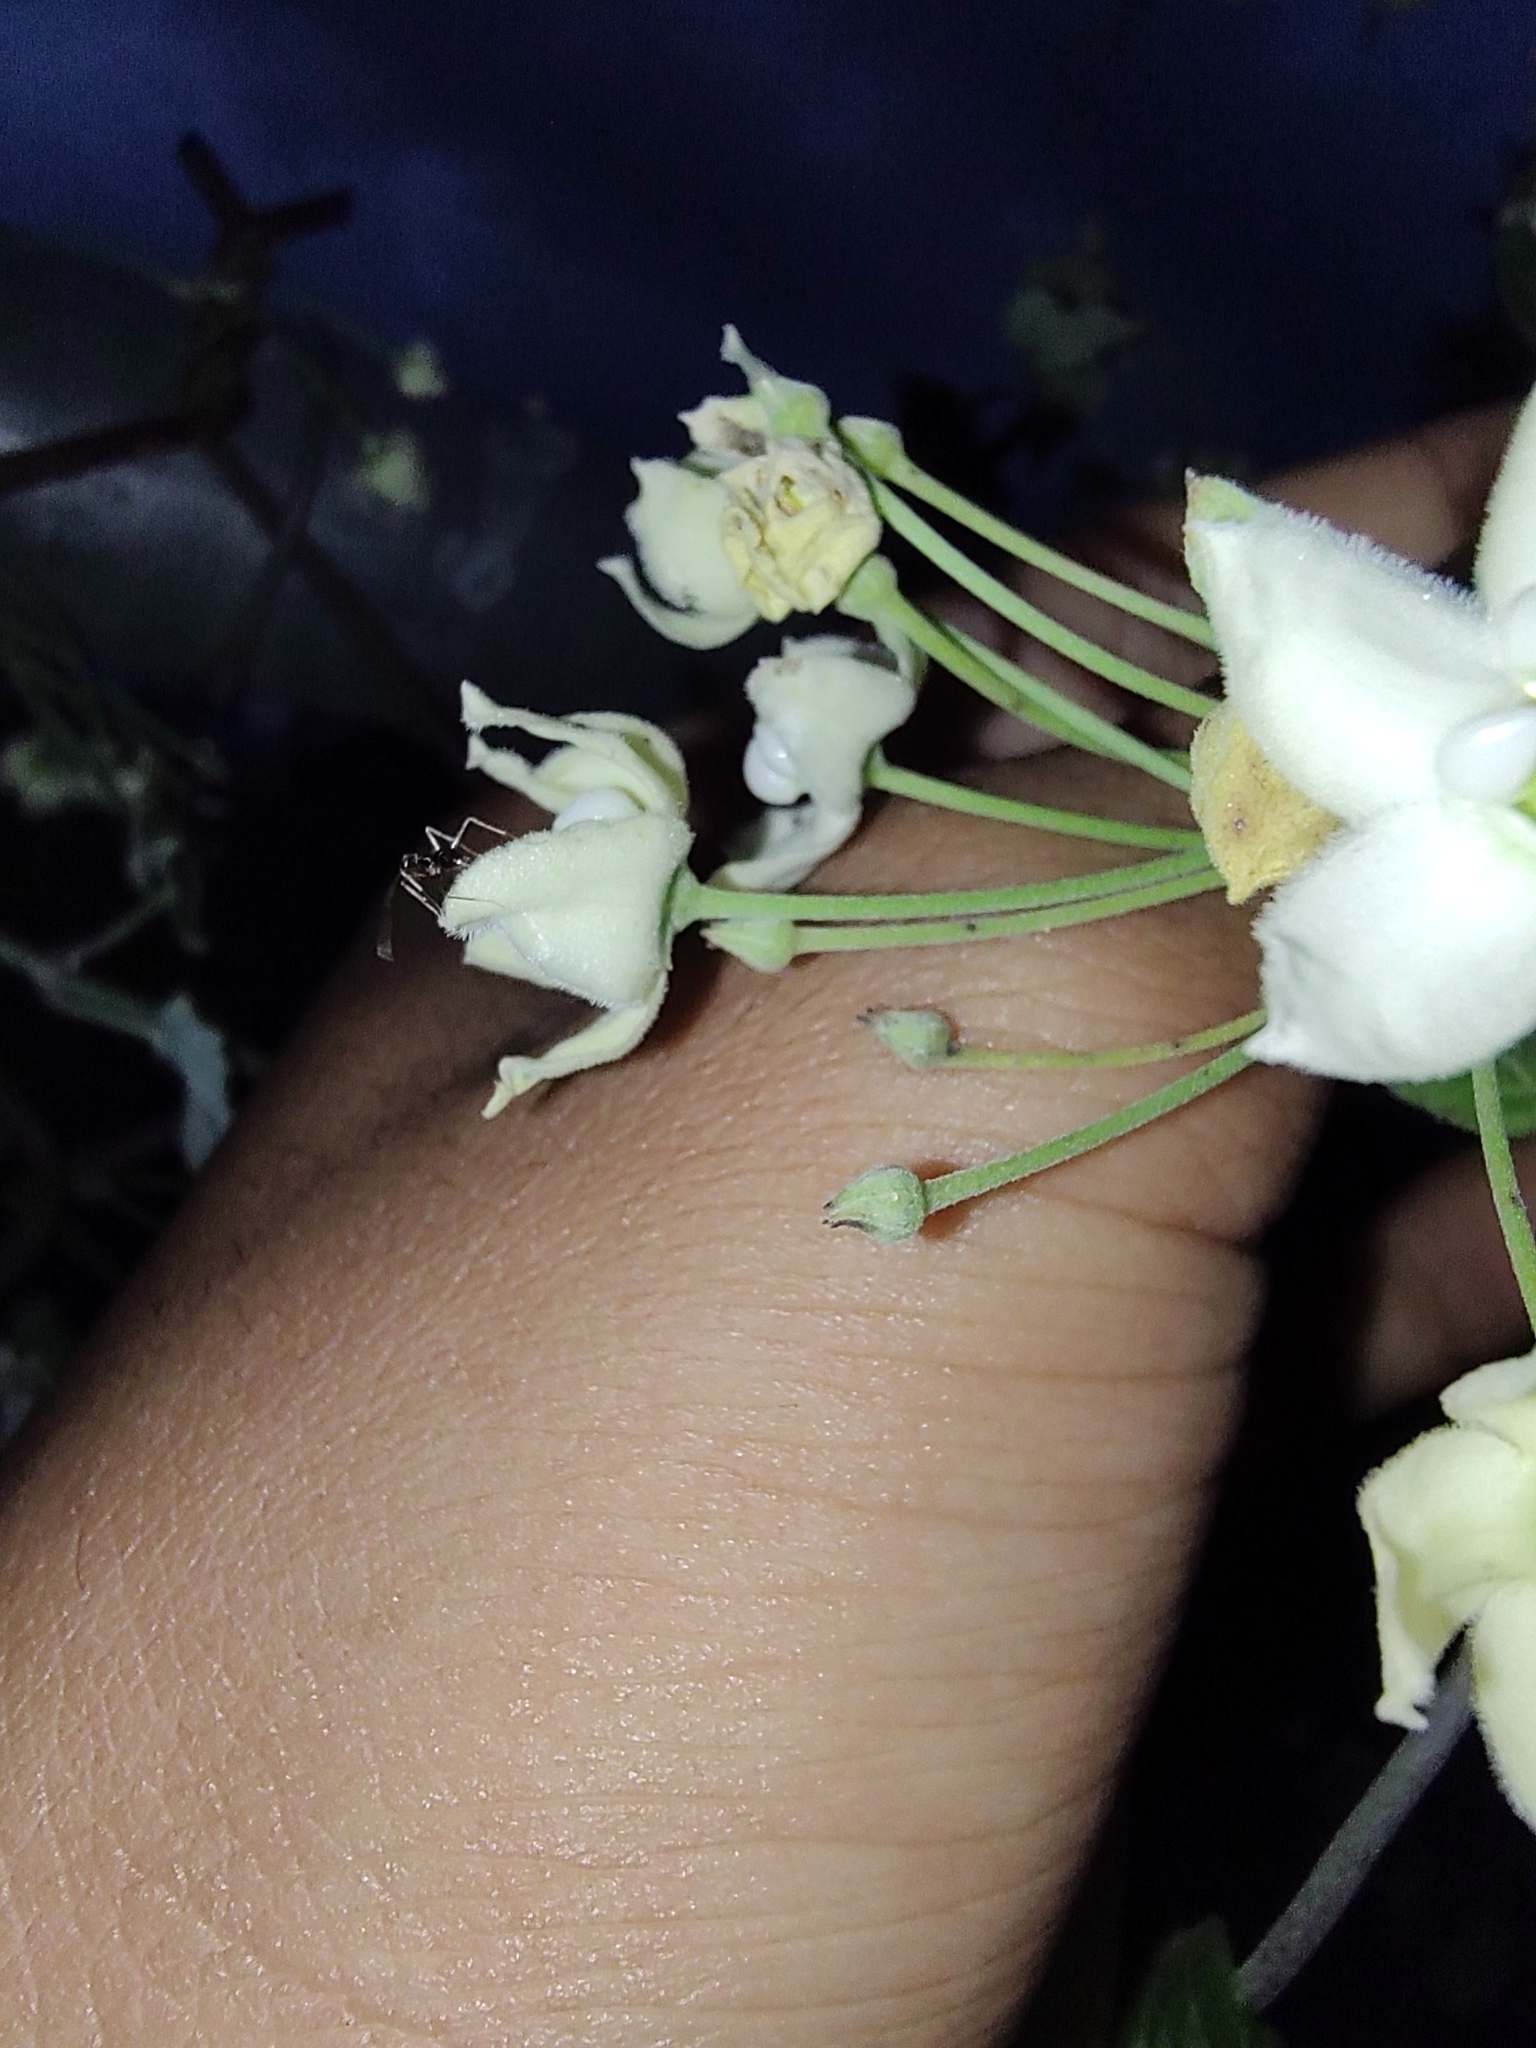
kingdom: Plantae
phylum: Tracheophyta
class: Magnoliopsida
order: Gentianales
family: Apocynaceae
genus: Funastrum
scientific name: Funastrum pannosum
